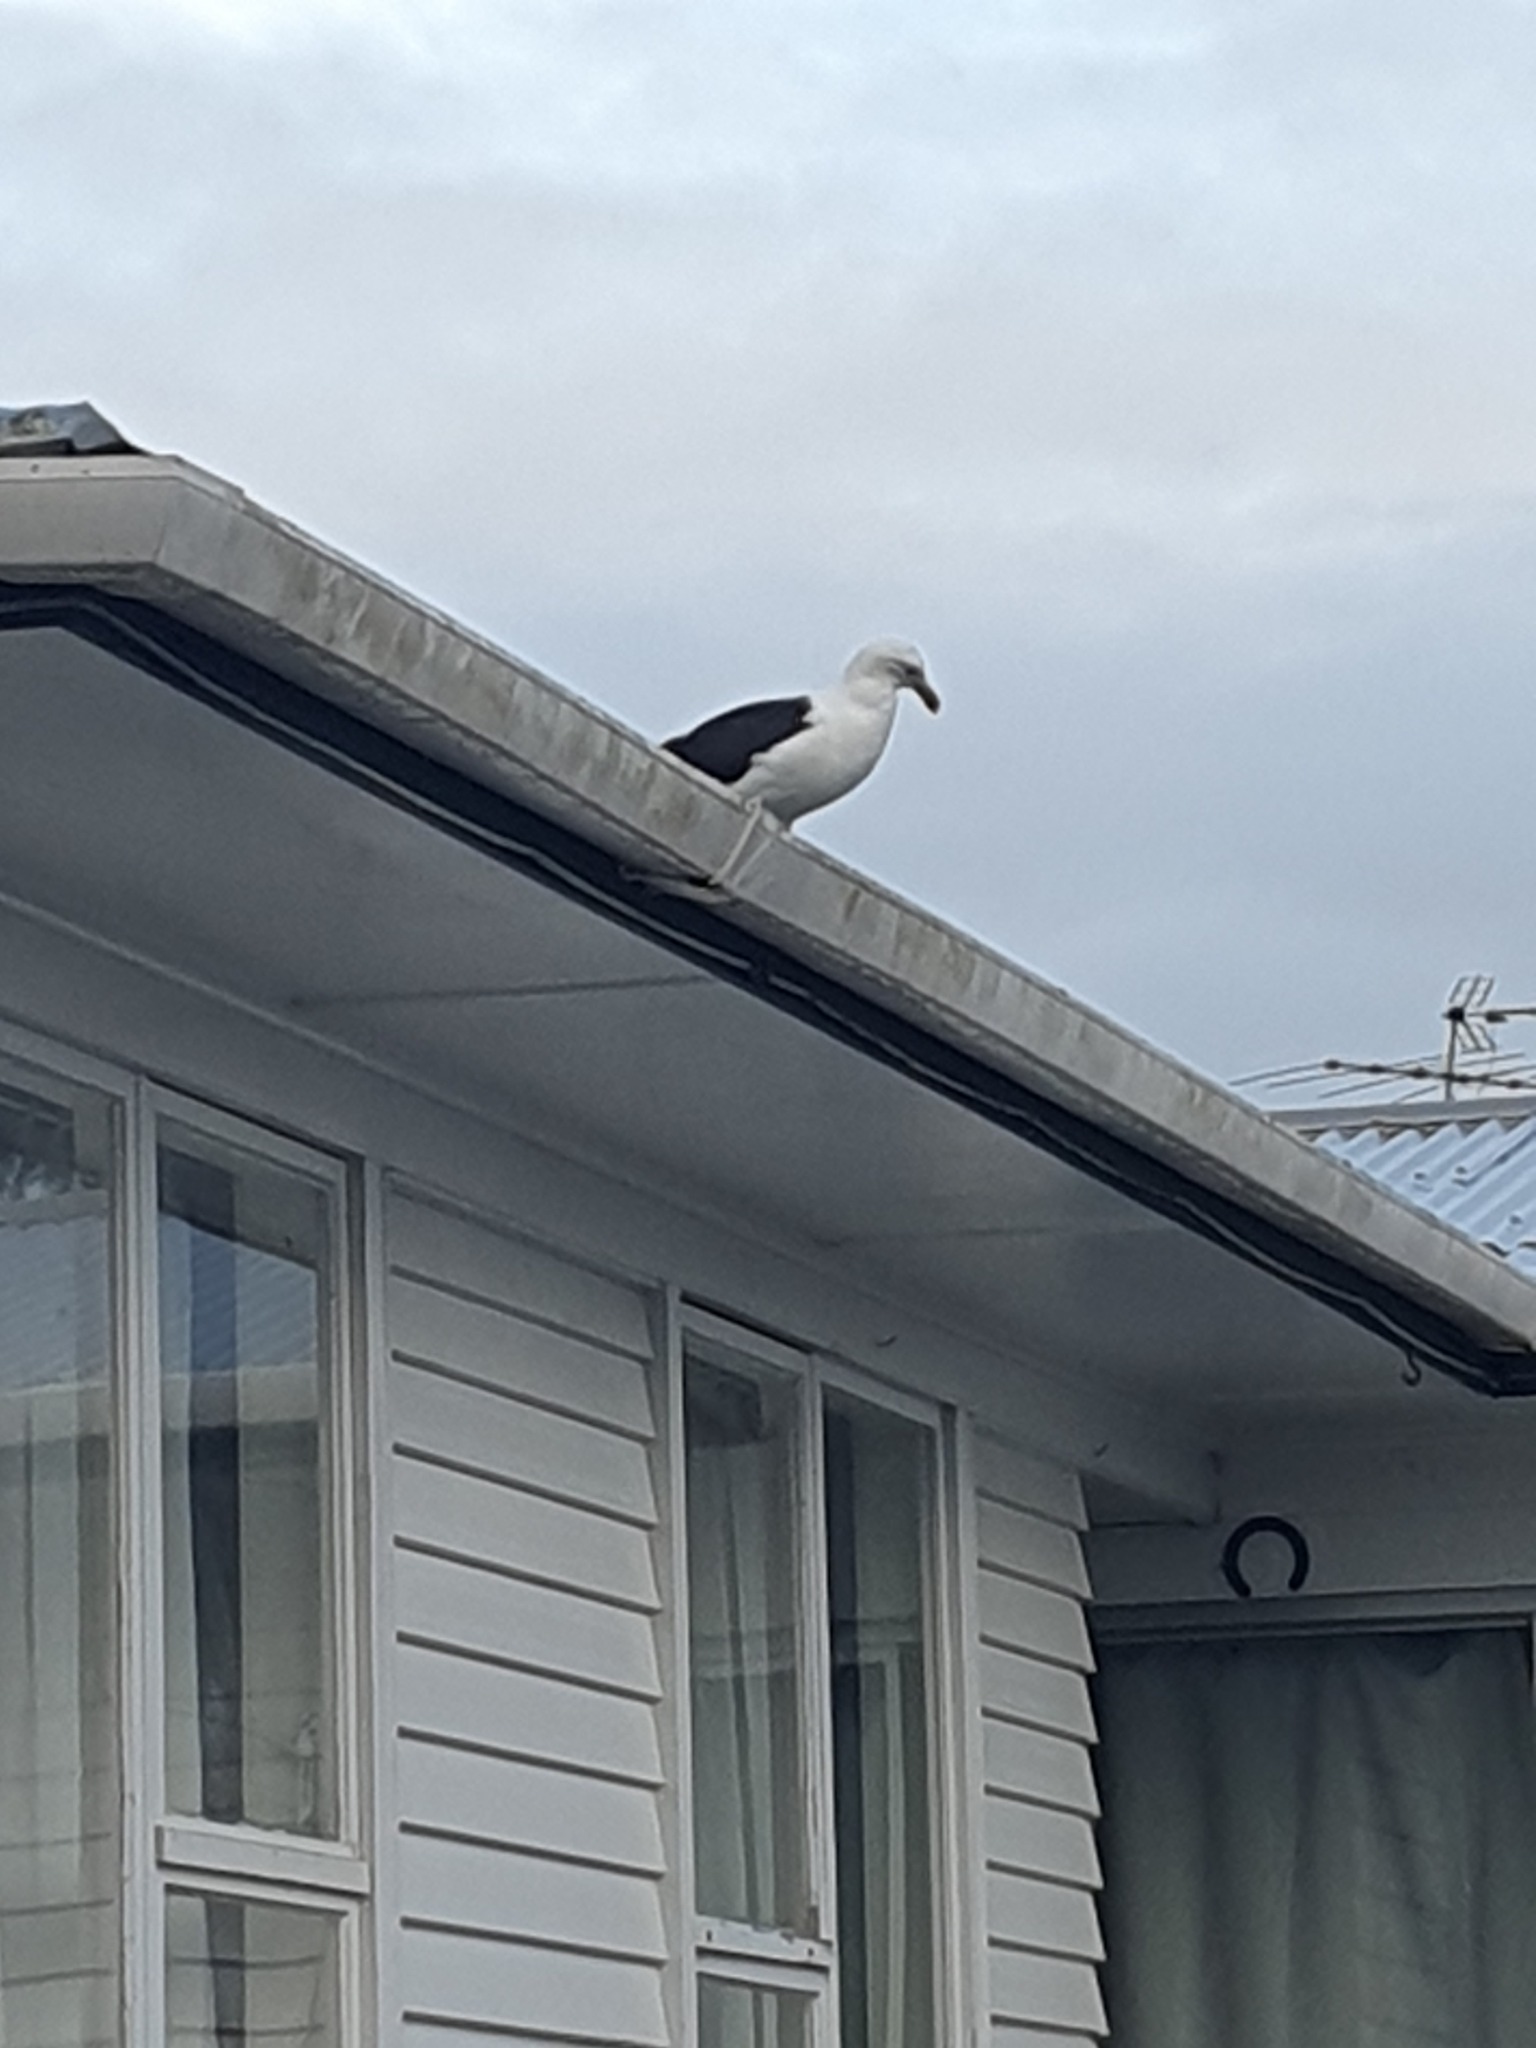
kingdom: Animalia
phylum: Chordata
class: Aves
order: Charadriiformes
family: Laridae
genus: Larus
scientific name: Larus dominicanus
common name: Kelp gull
